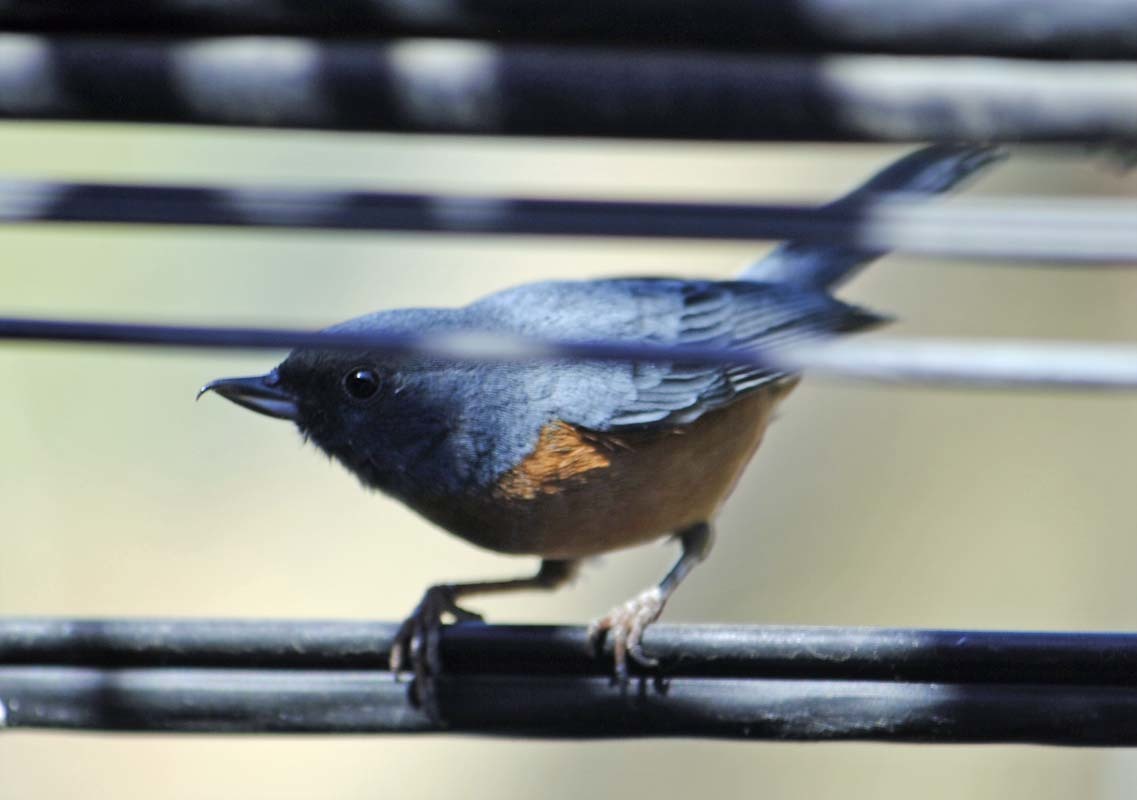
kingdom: Animalia
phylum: Chordata
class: Aves
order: Passeriformes
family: Thraupidae
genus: Diglossa
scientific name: Diglossa baritula
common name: Cinnamon-bellied flowerpiercer
